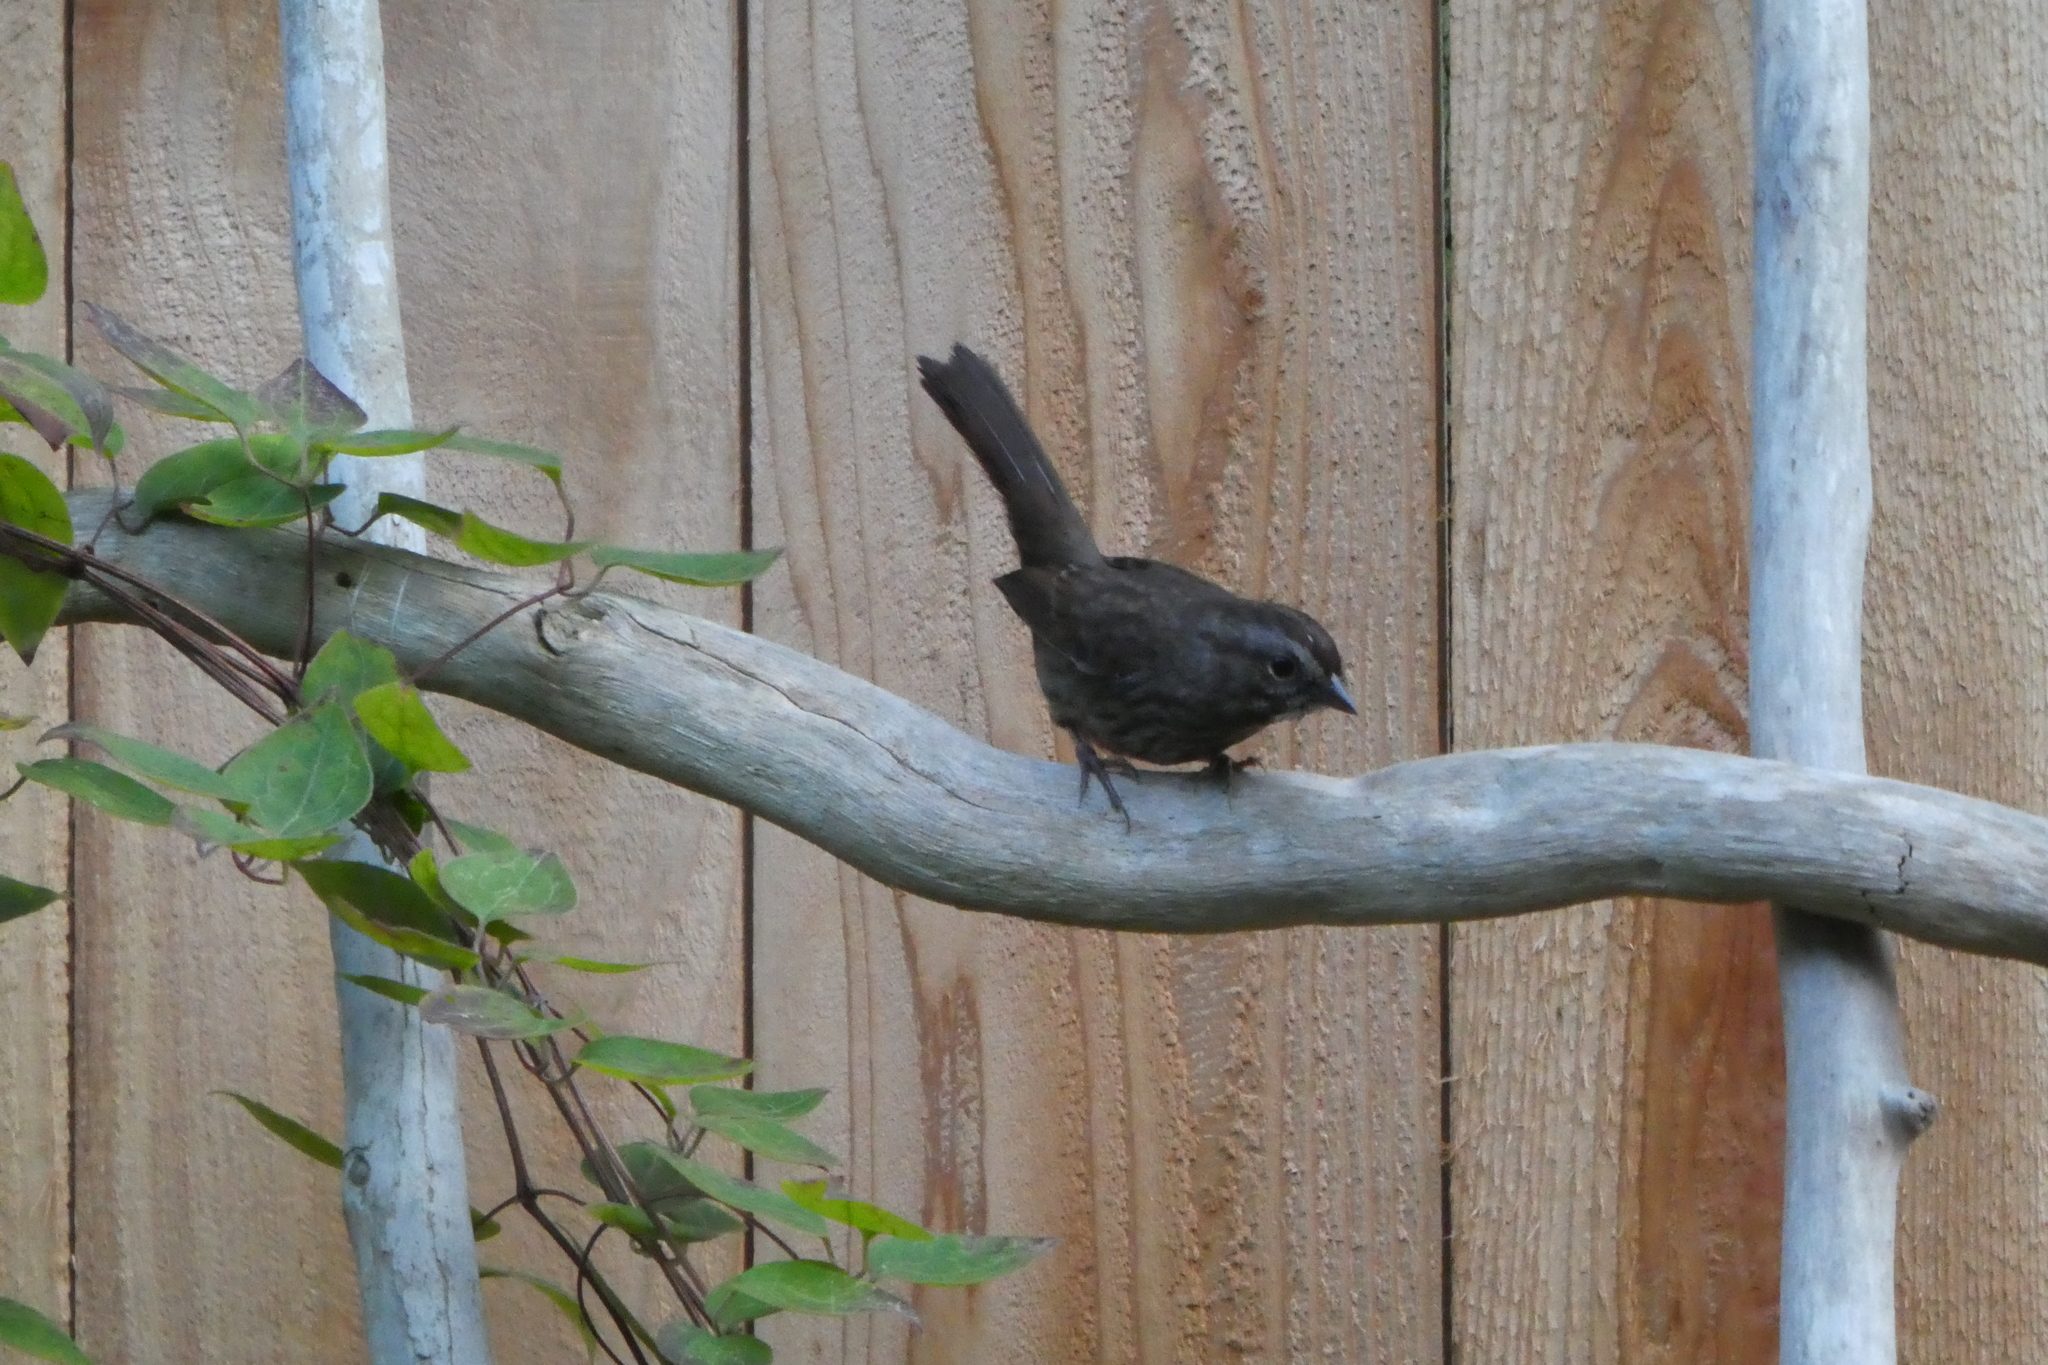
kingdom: Animalia
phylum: Chordata
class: Aves
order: Passeriformes
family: Passerellidae
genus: Melospiza
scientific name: Melospiza melodia
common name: Song sparrow
